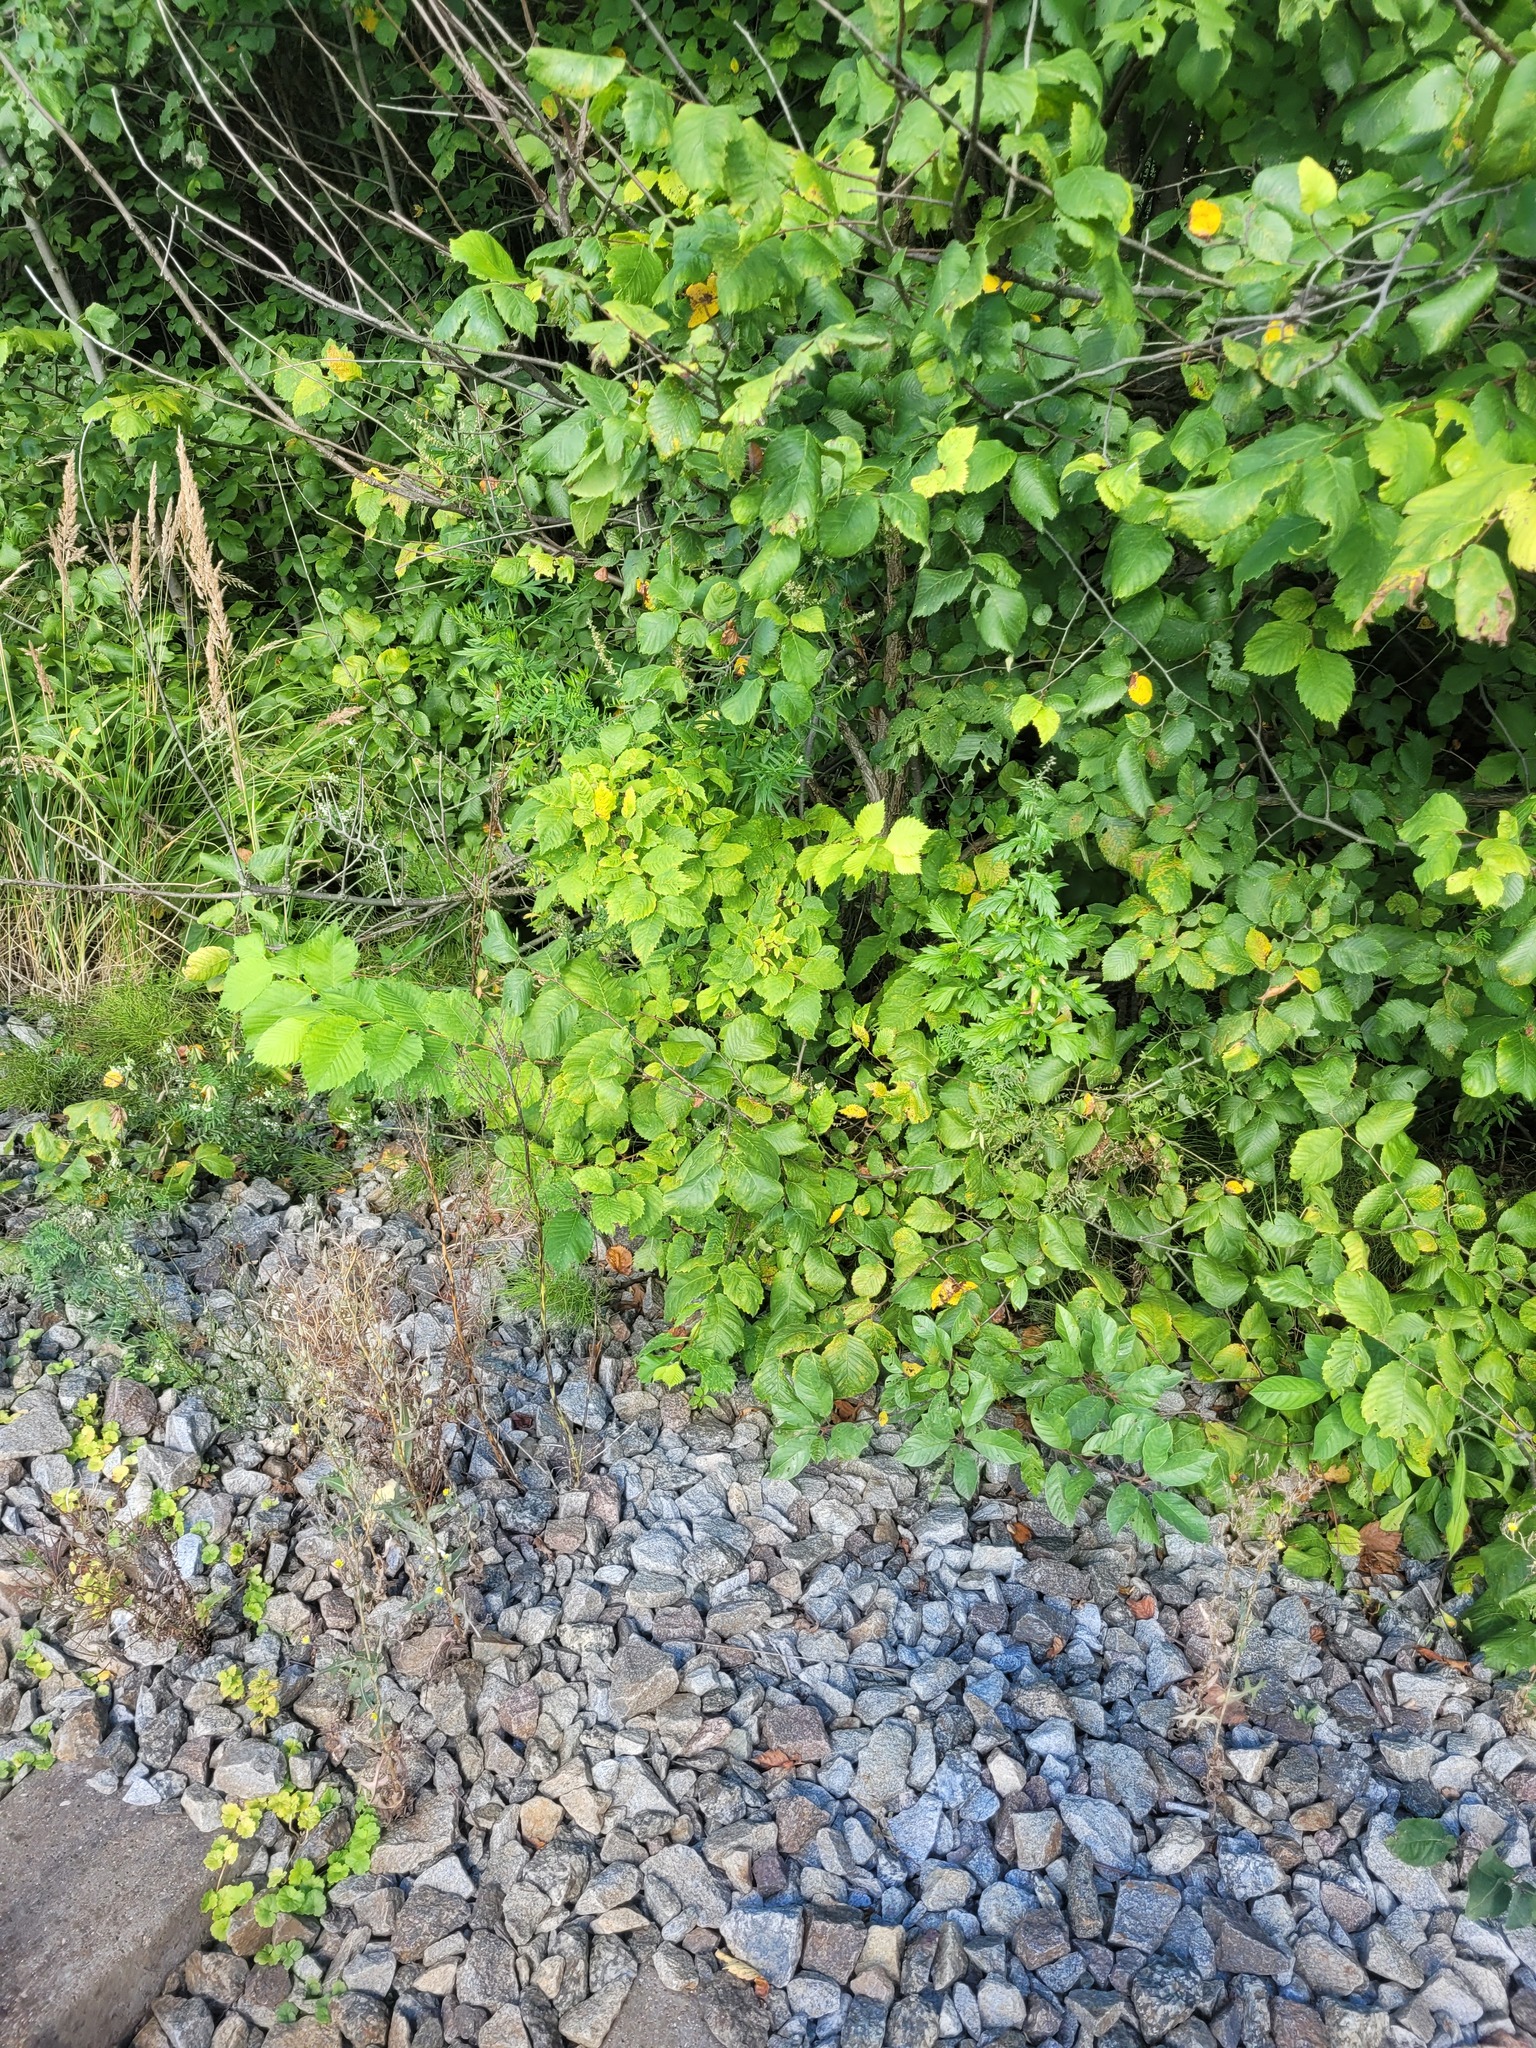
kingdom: Plantae
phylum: Tracheophyta
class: Magnoliopsida
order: Rosales
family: Ulmaceae
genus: Ulmus
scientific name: Ulmus laevis
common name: European white-elm
